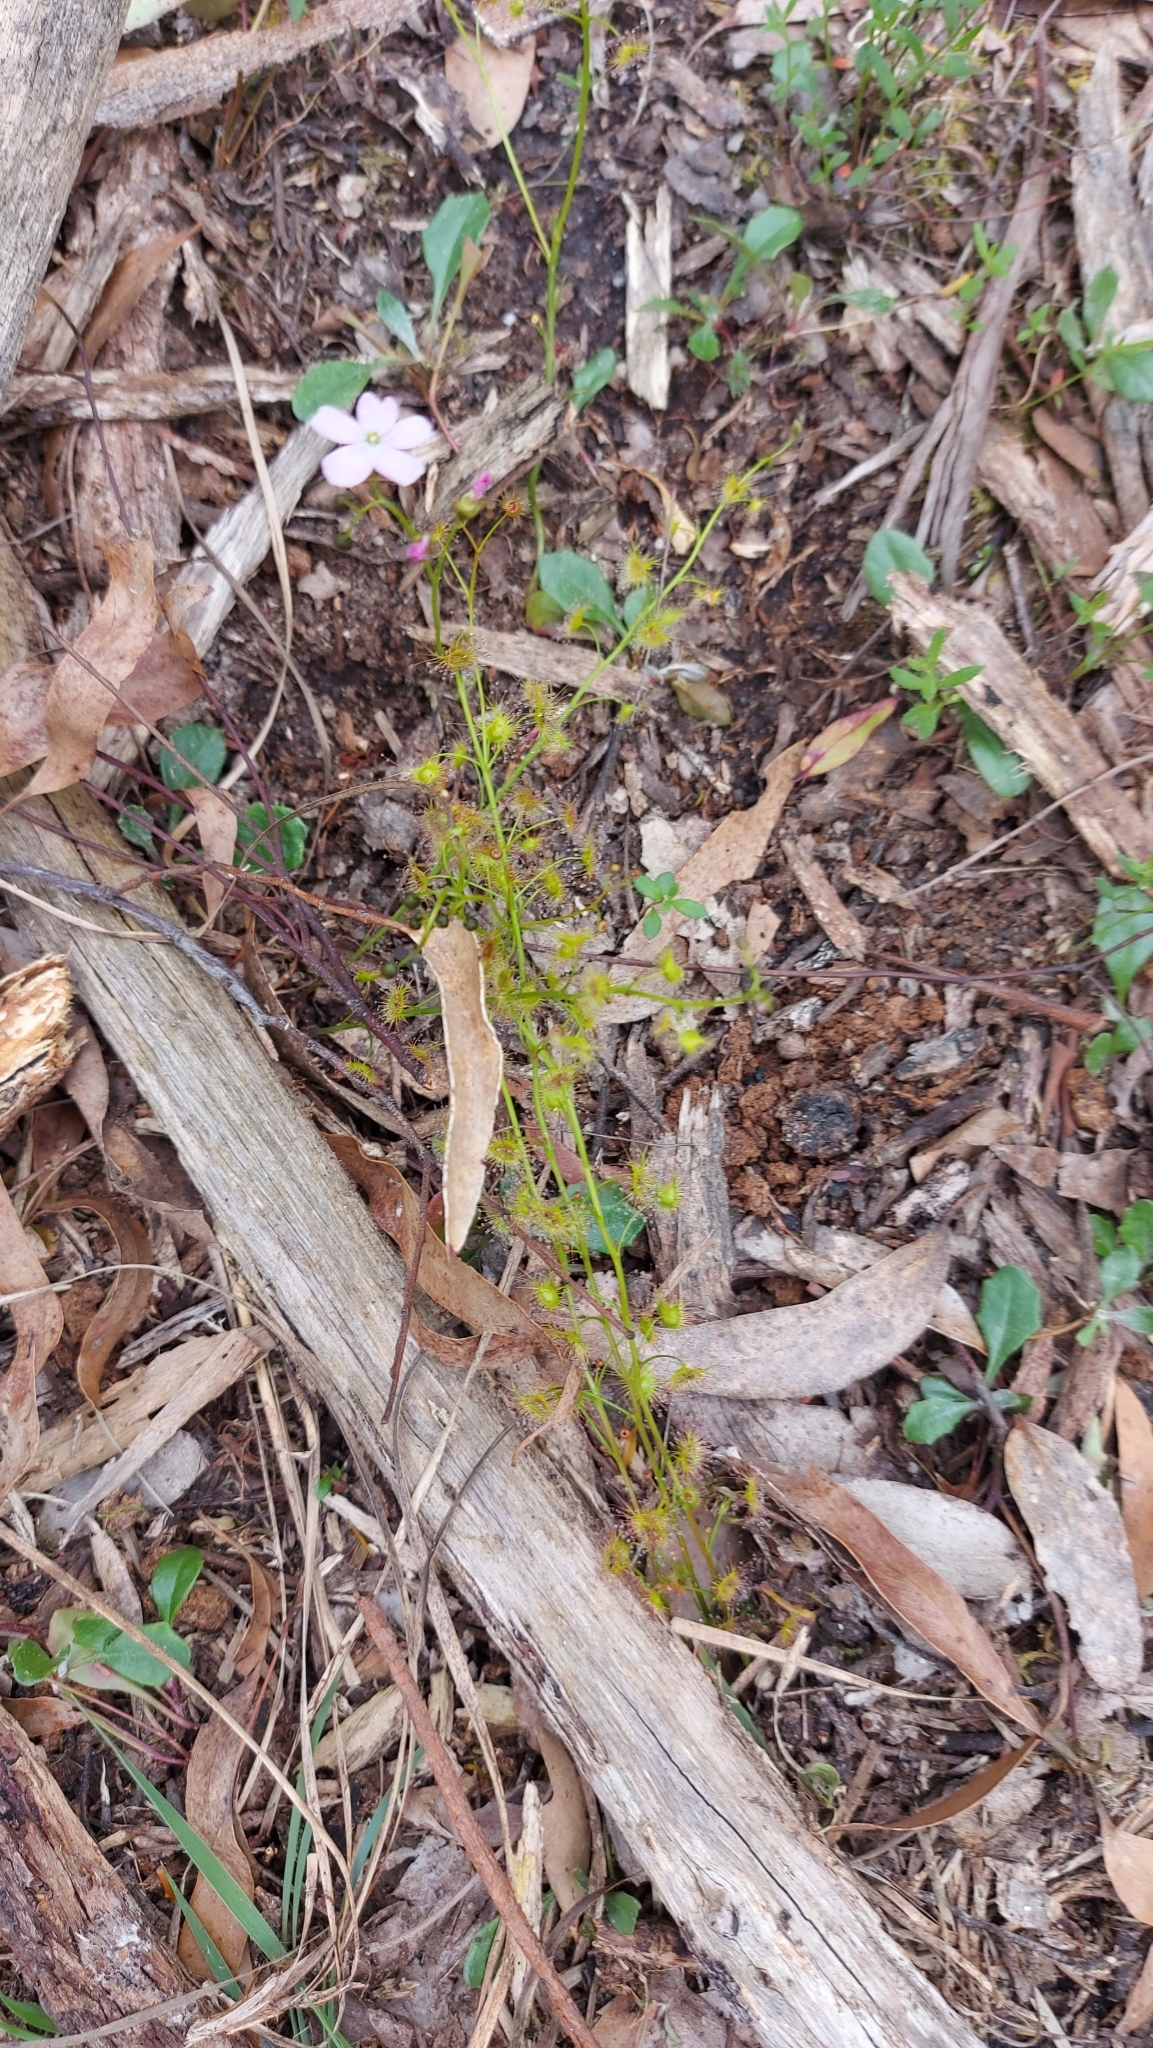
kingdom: Plantae
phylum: Tracheophyta
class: Magnoliopsida
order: Caryophyllales
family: Droseraceae
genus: Drosera
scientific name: Drosera peltata
